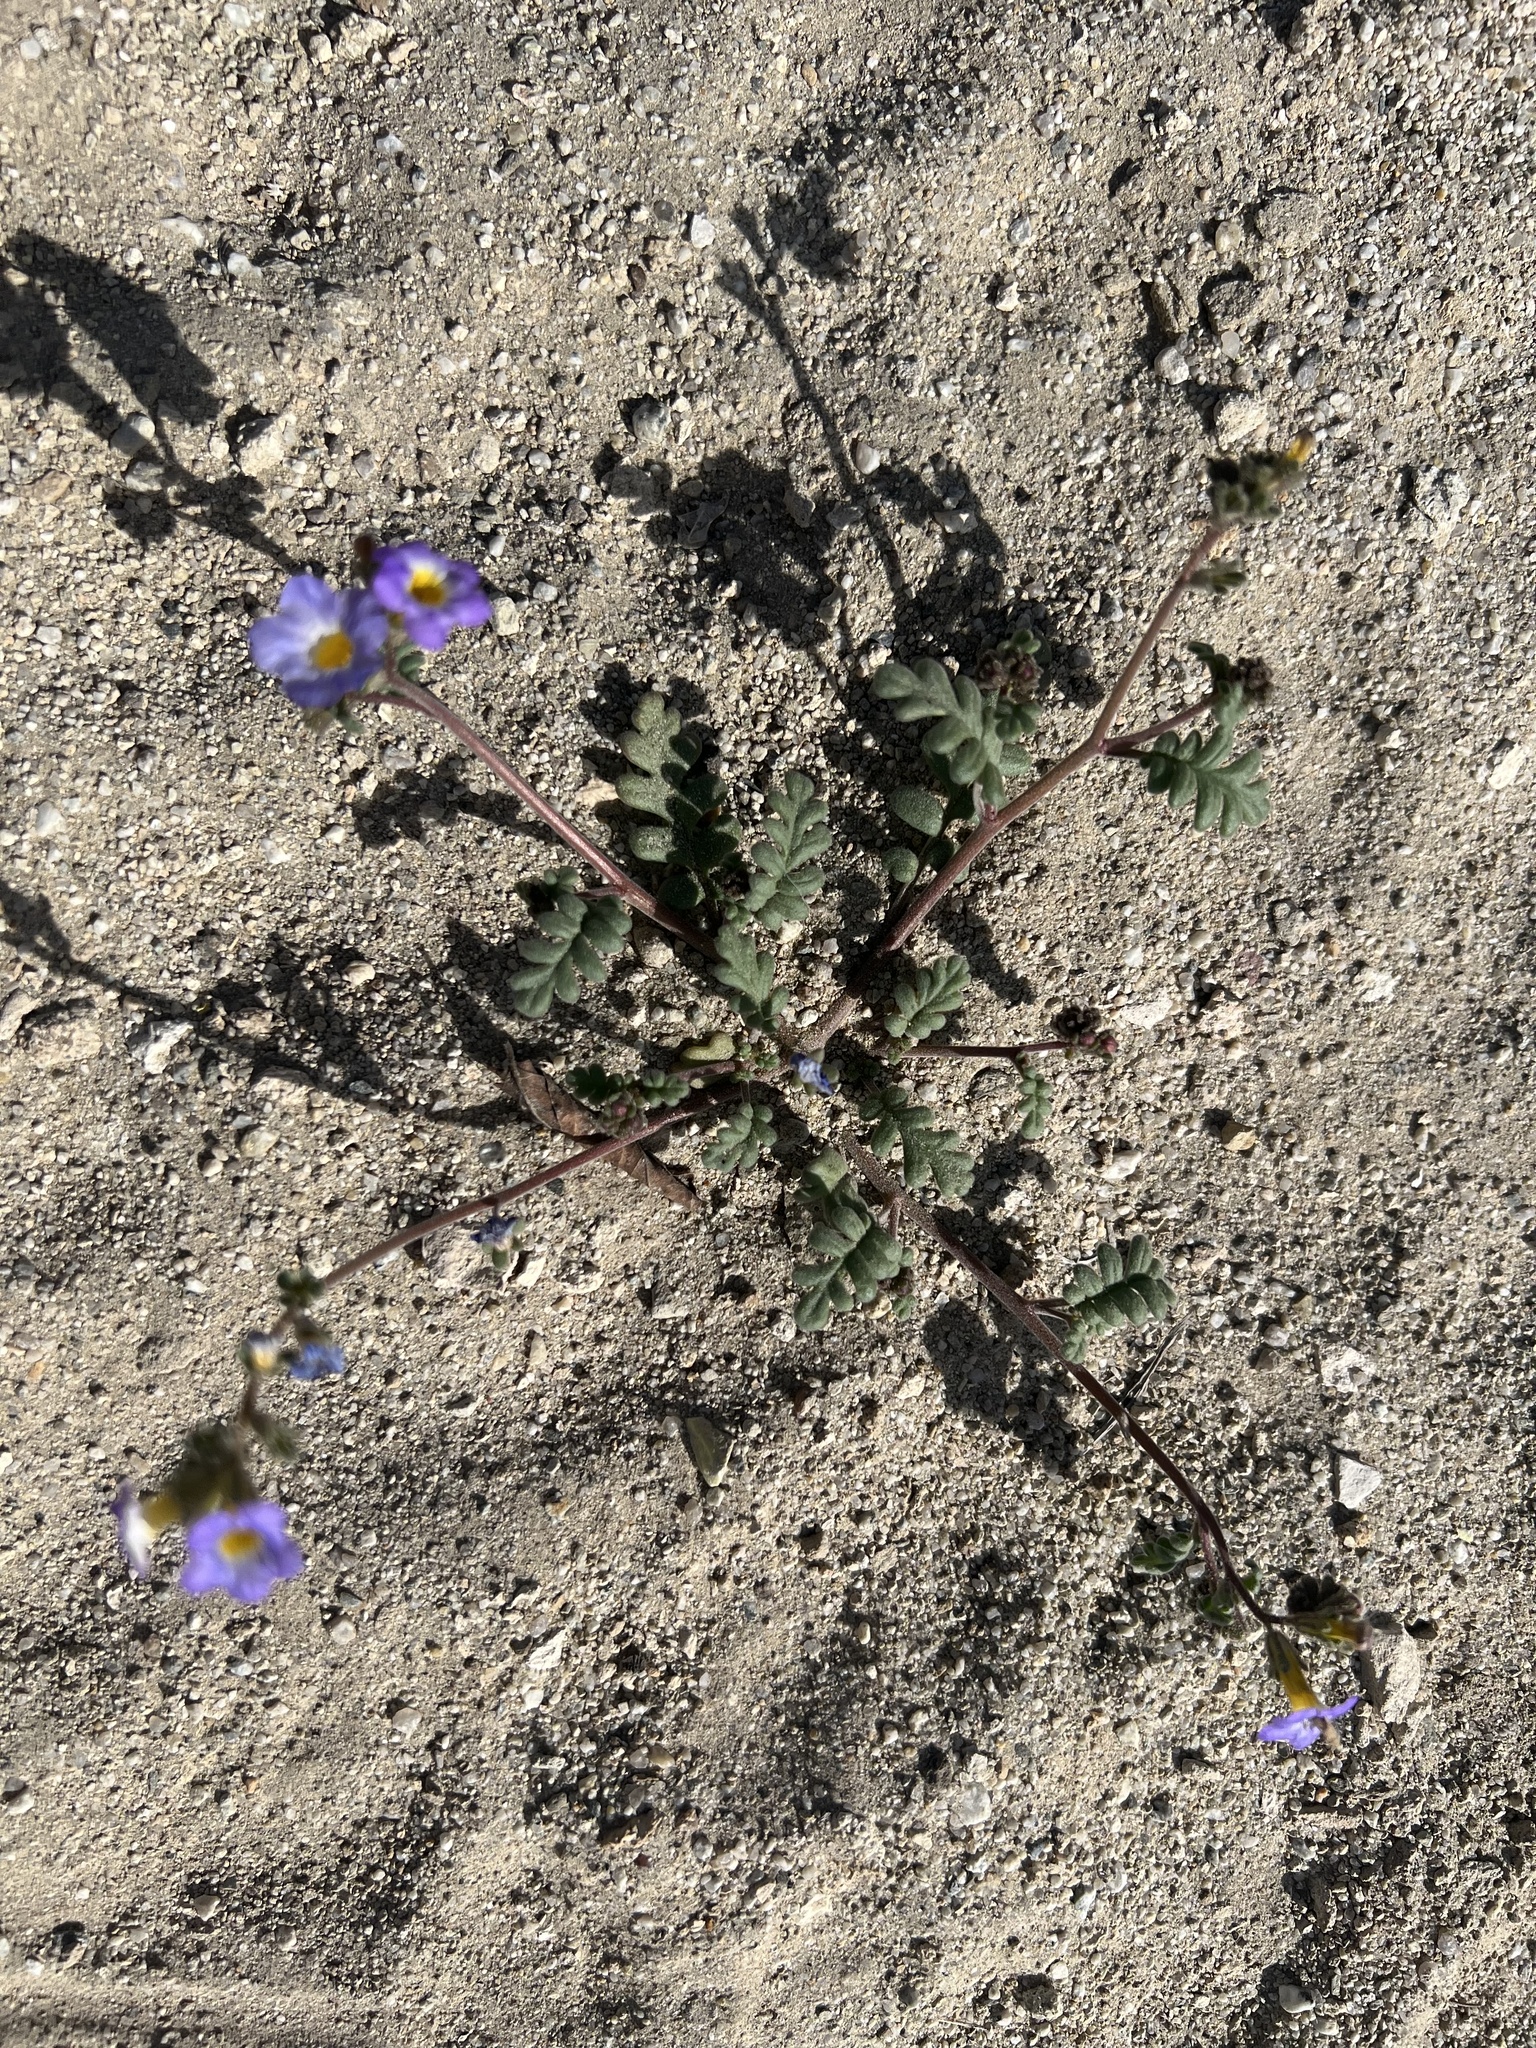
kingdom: Plantae
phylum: Tracheophyta
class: Magnoliopsida
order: Boraginales
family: Hydrophyllaceae
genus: Phacelia
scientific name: Phacelia fremontii
